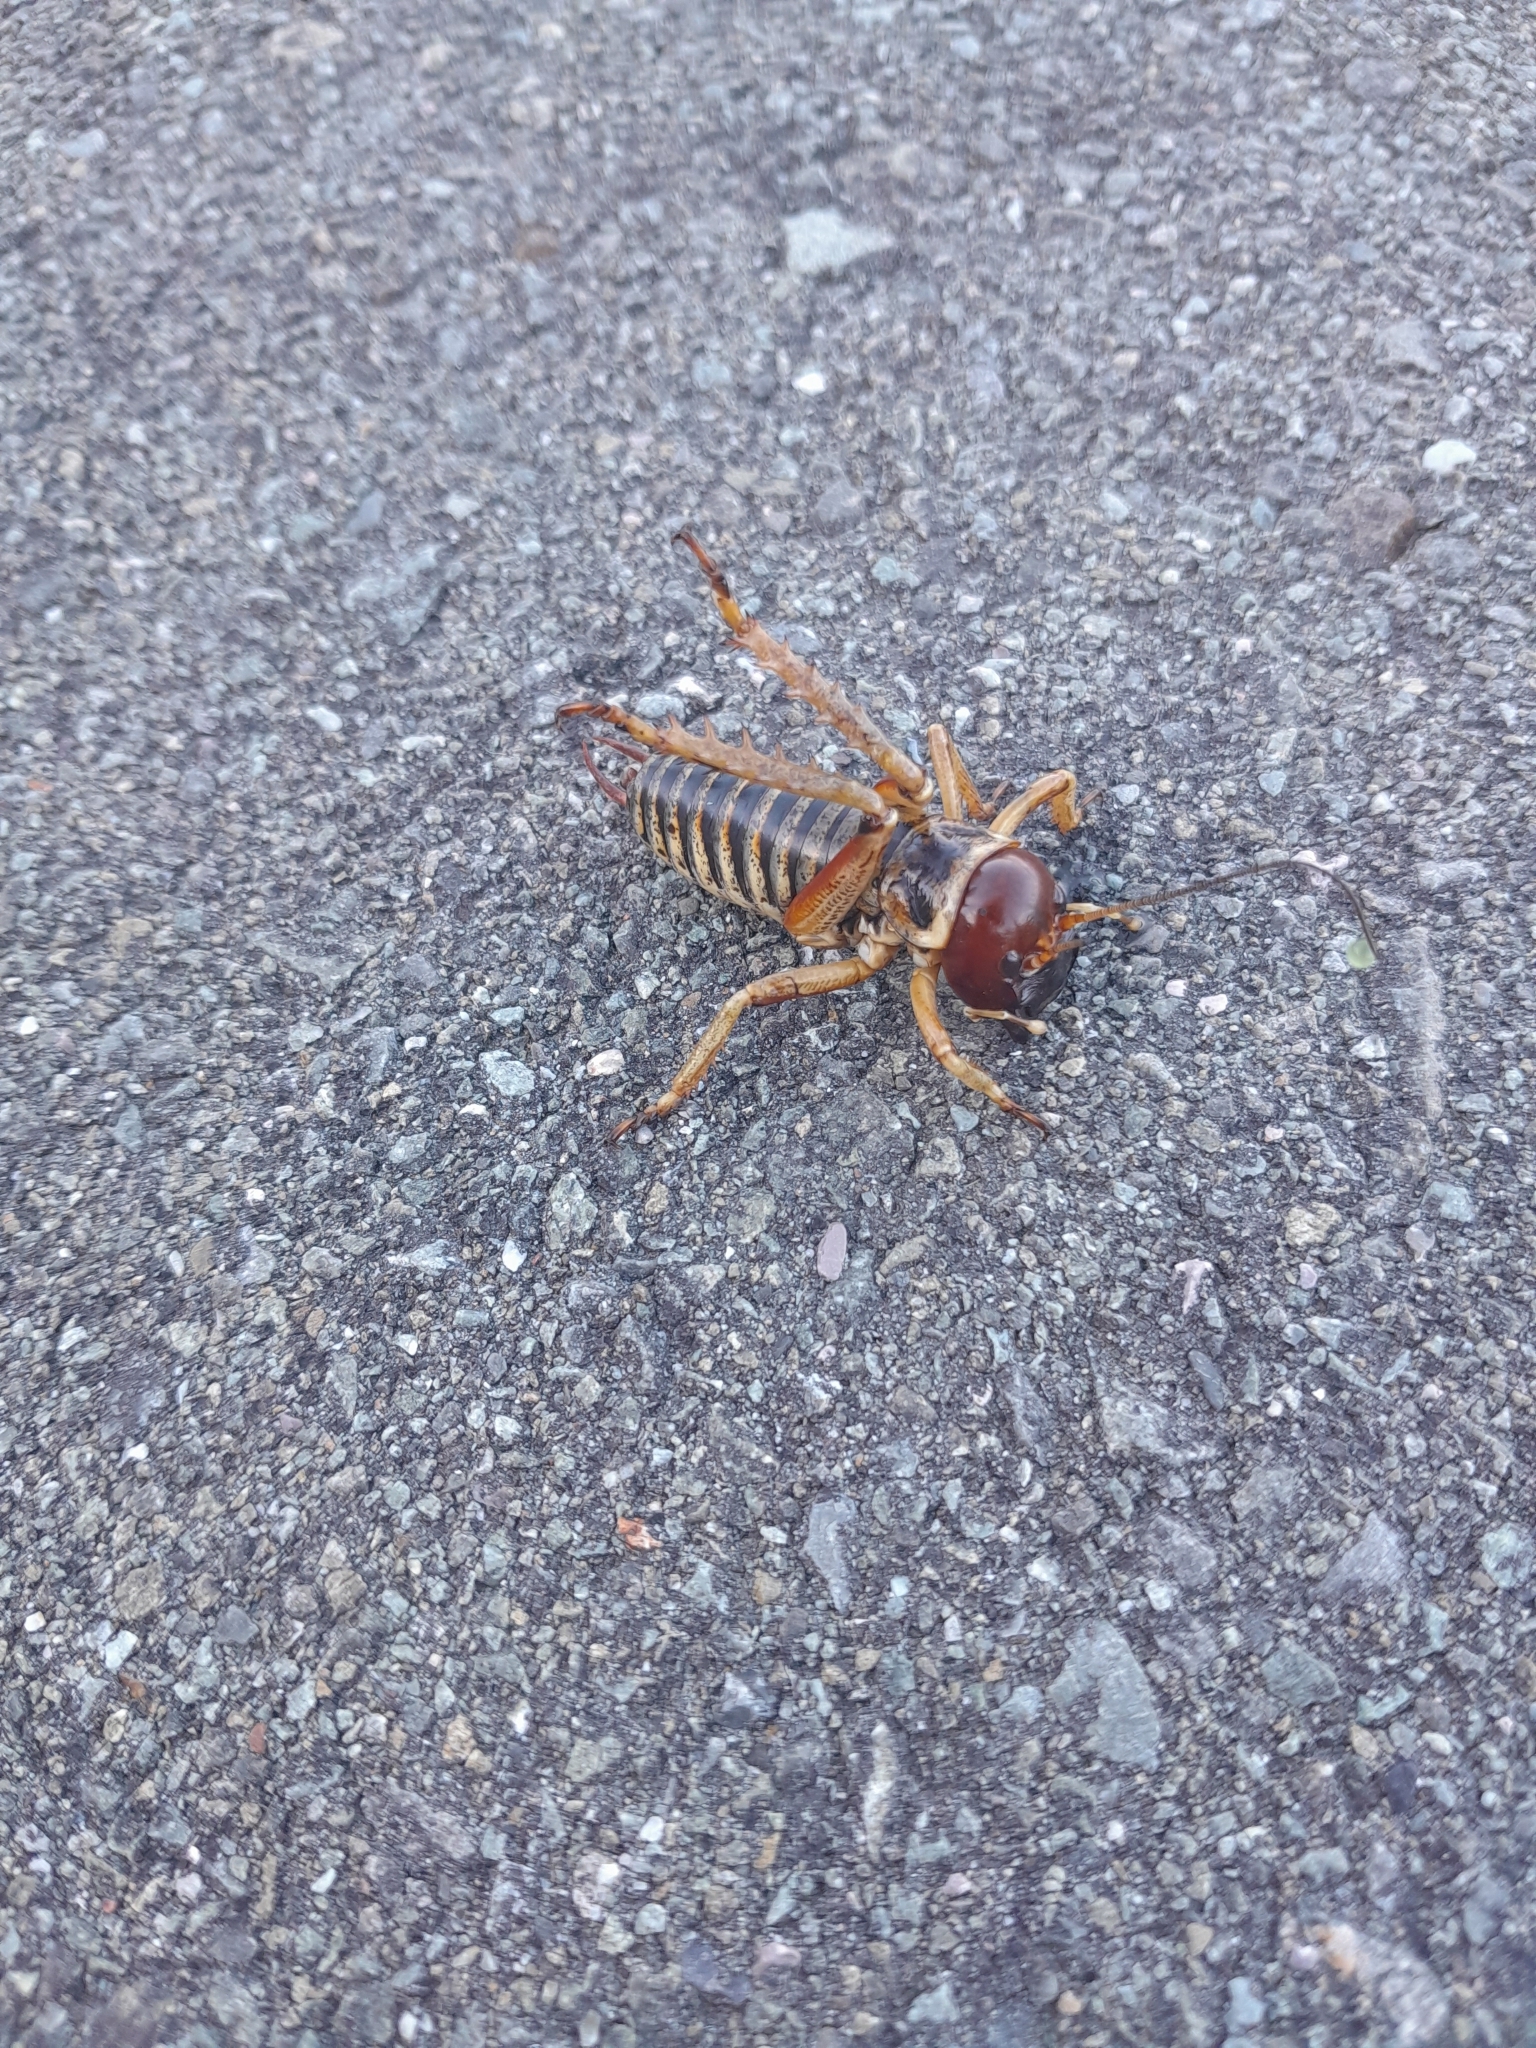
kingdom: Animalia
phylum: Arthropoda
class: Insecta
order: Orthoptera
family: Anostostomatidae
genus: Hemideina
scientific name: Hemideina maori
